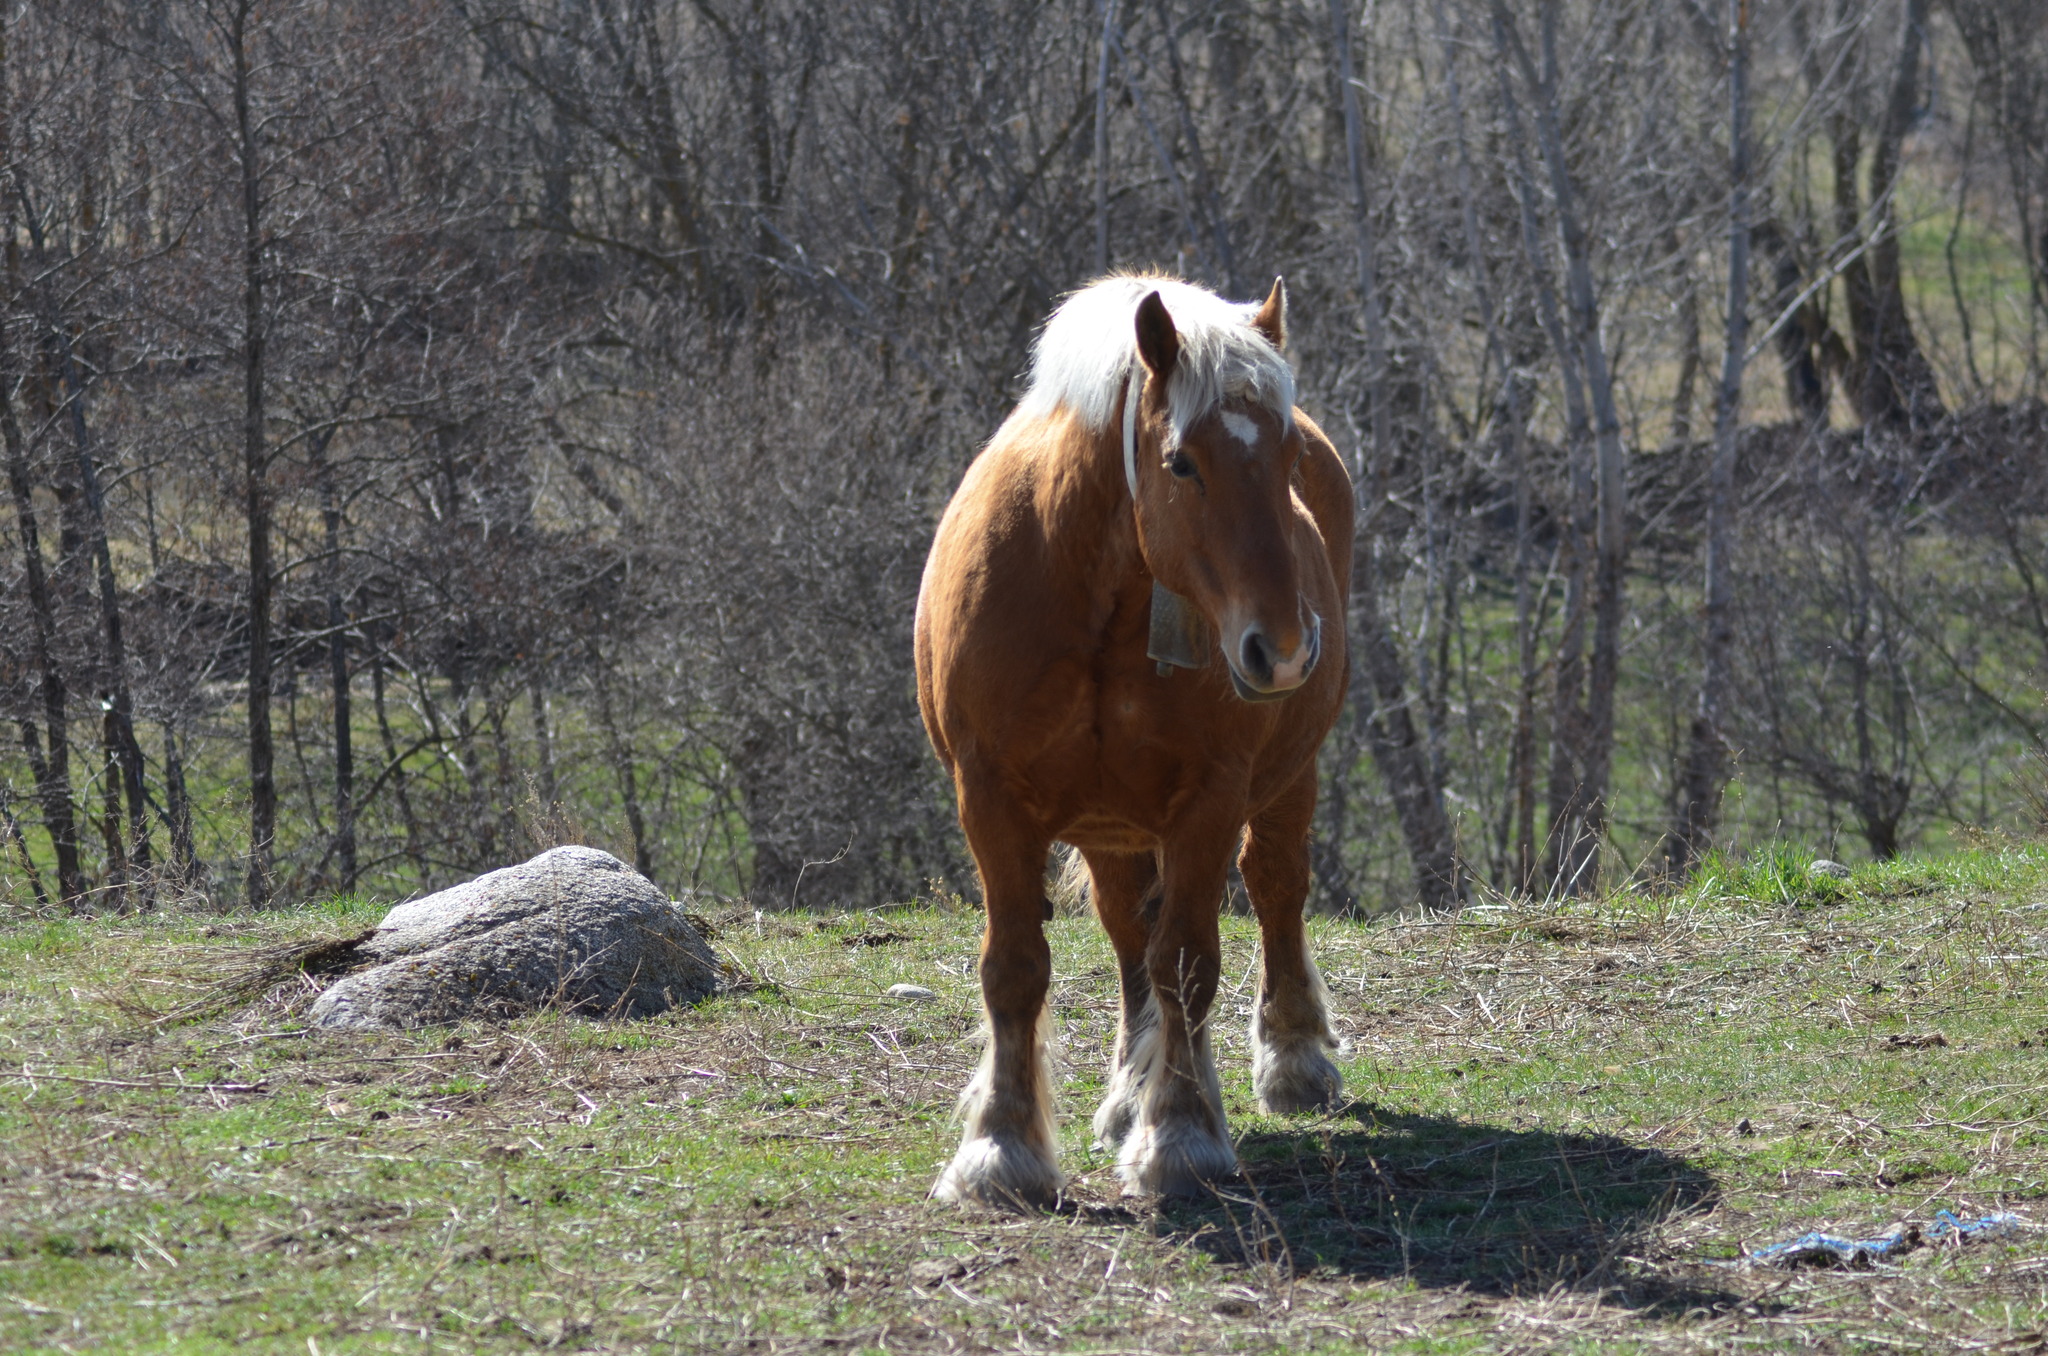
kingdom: Animalia
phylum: Chordata
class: Mammalia
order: Perissodactyla
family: Equidae
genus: Equus
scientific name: Equus caballus
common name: Horse
